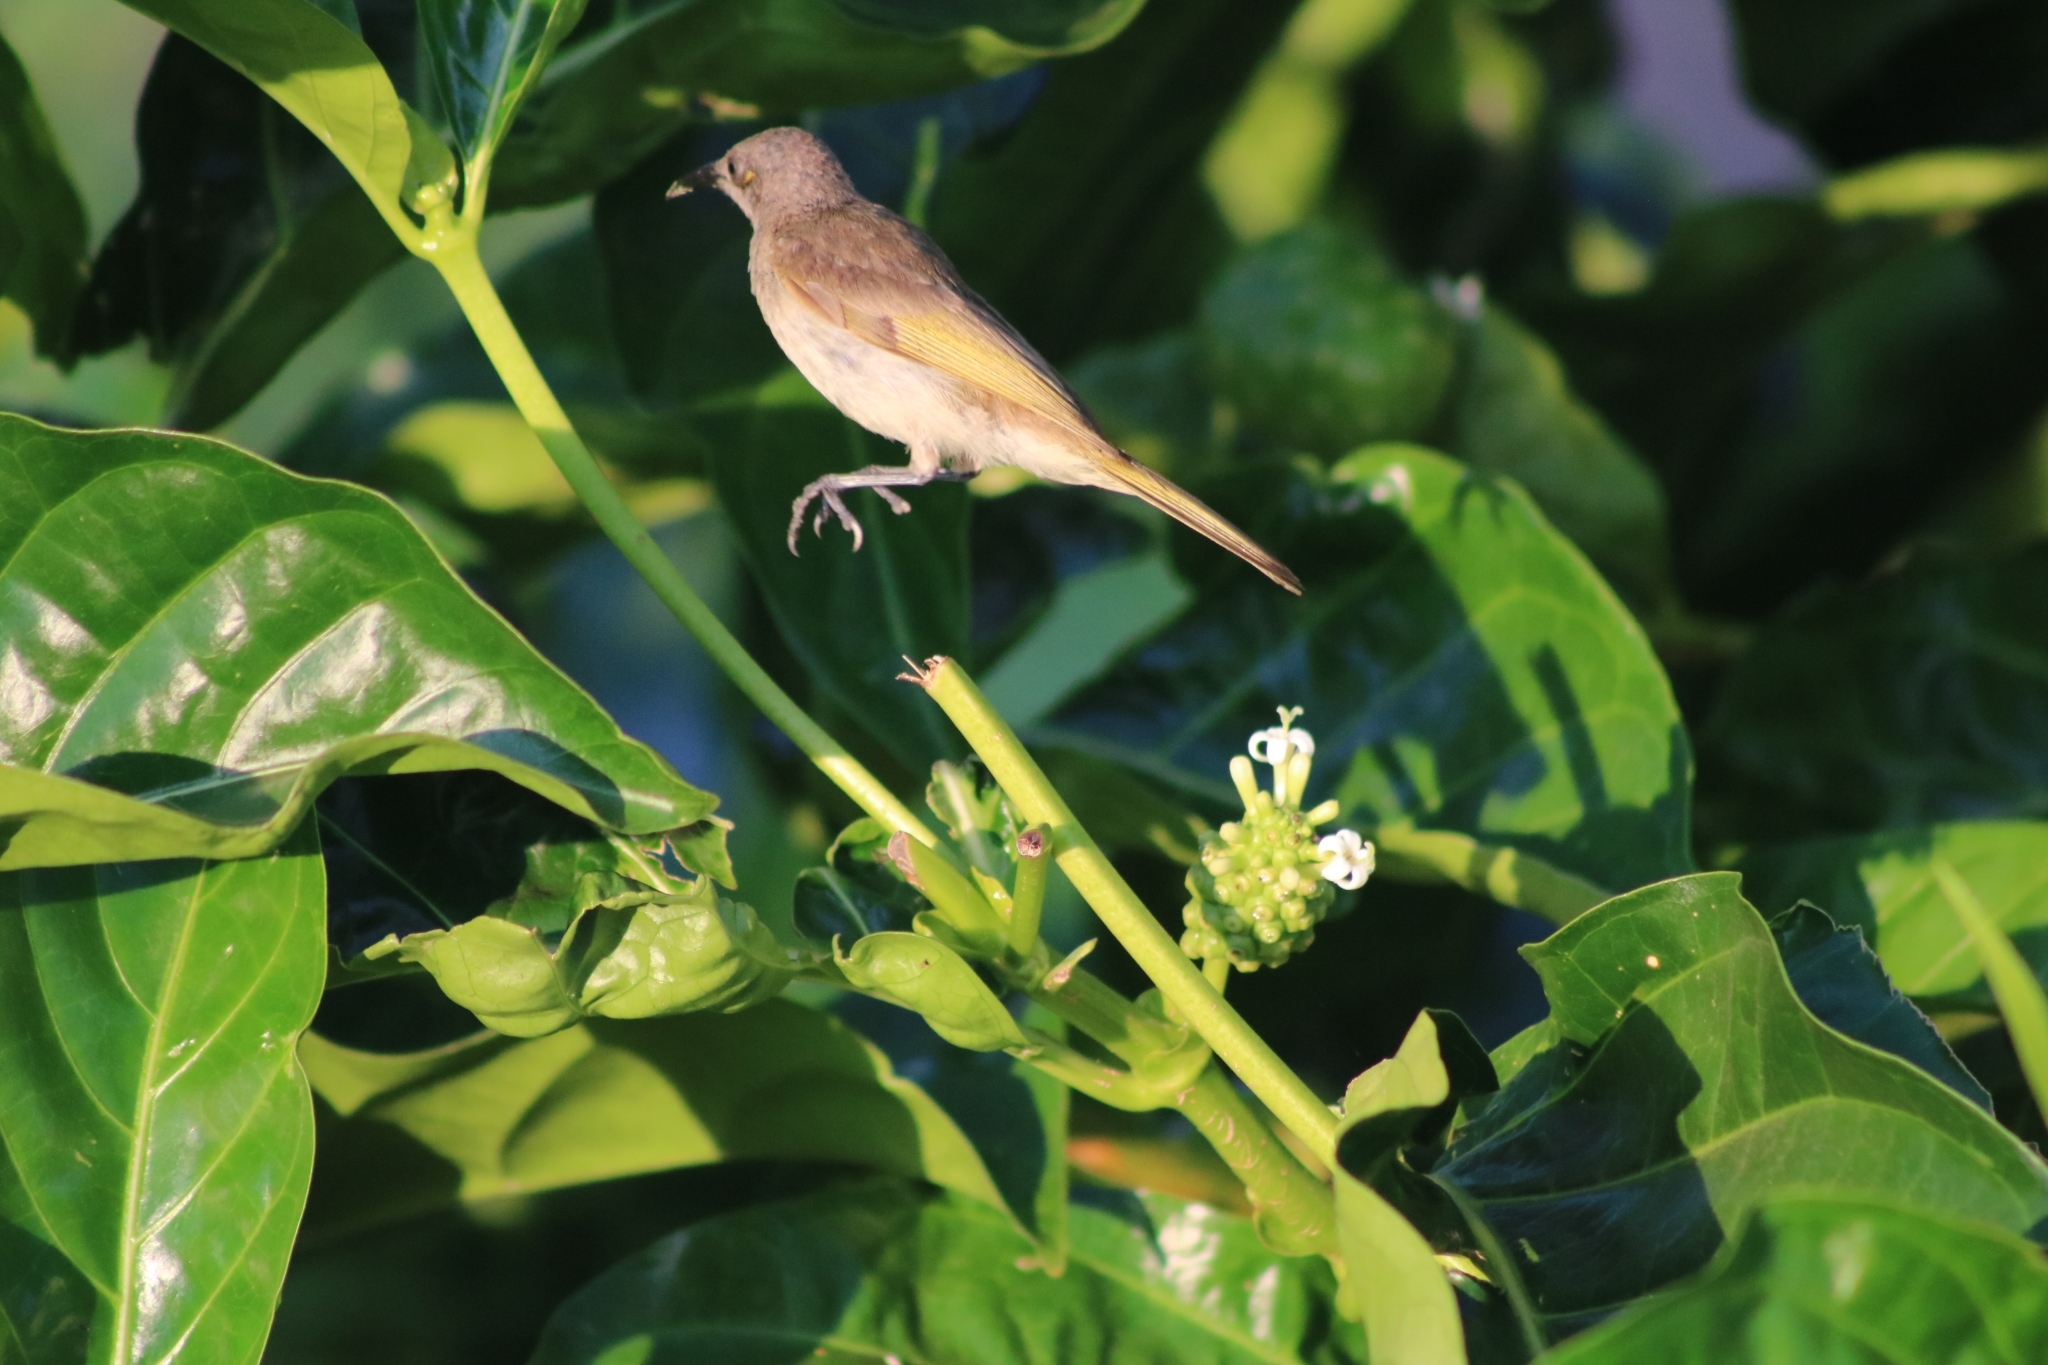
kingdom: Animalia
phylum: Chordata
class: Aves
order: Passeriformes
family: Meliphagidae
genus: Lichmera
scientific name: Lichmera indistincta
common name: Brown honeyeater
